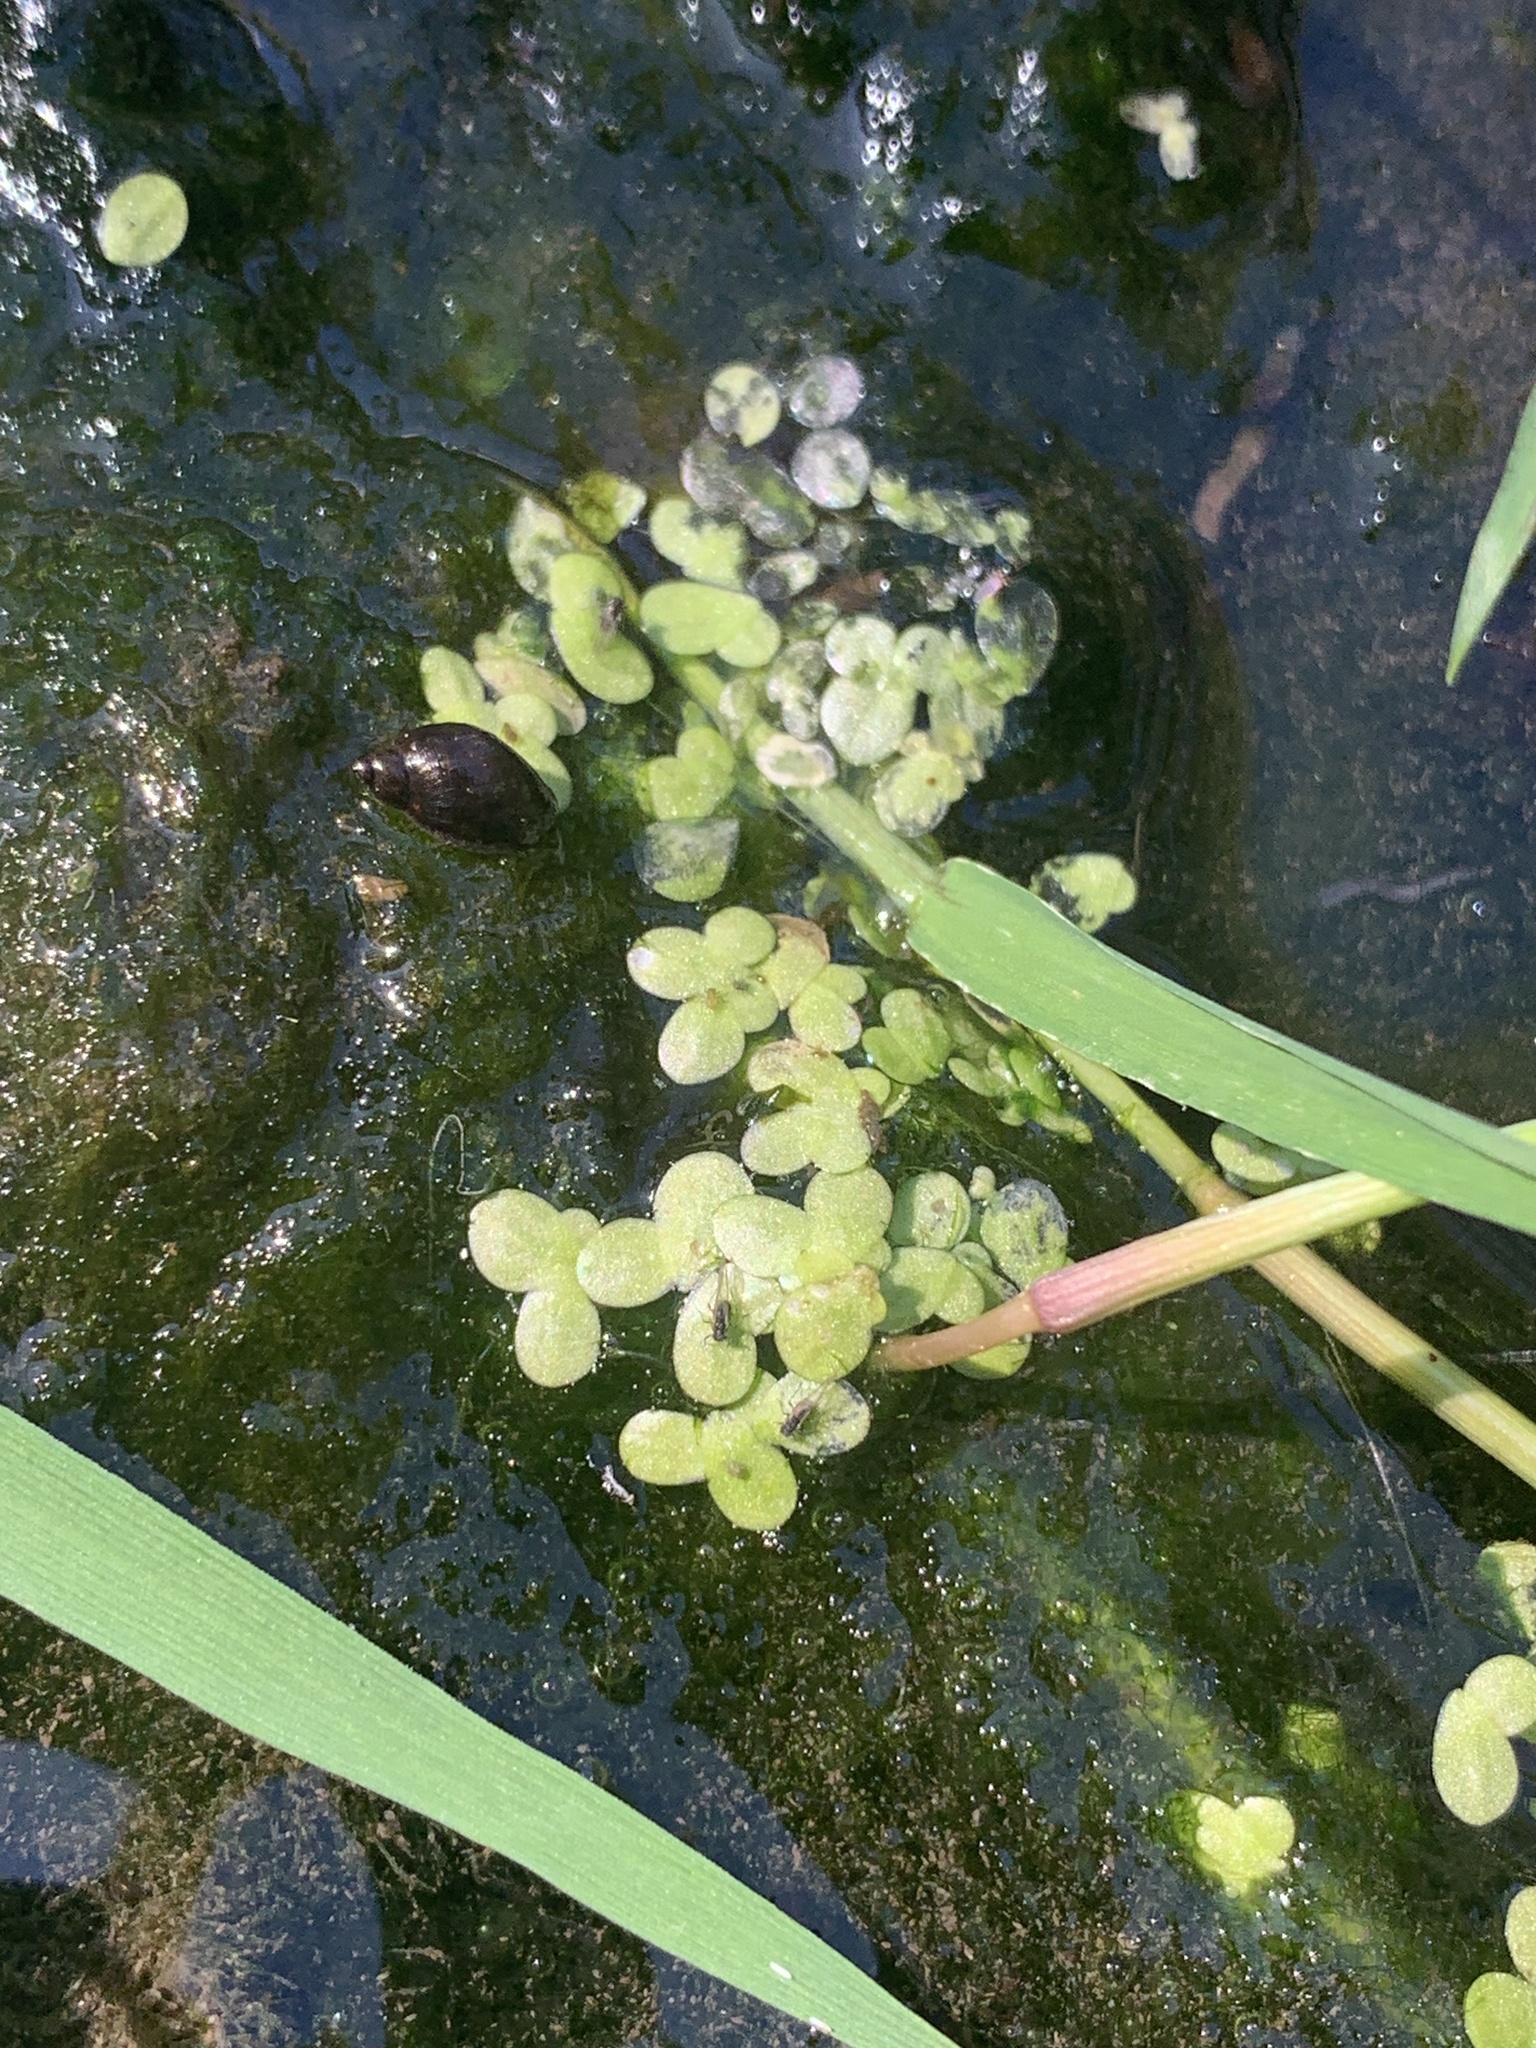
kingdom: Plantae
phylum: Tracheophyta
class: Liliopsida
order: Alismatales
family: Araceae
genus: Lemna
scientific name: Lemna minor
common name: Common duckweed
